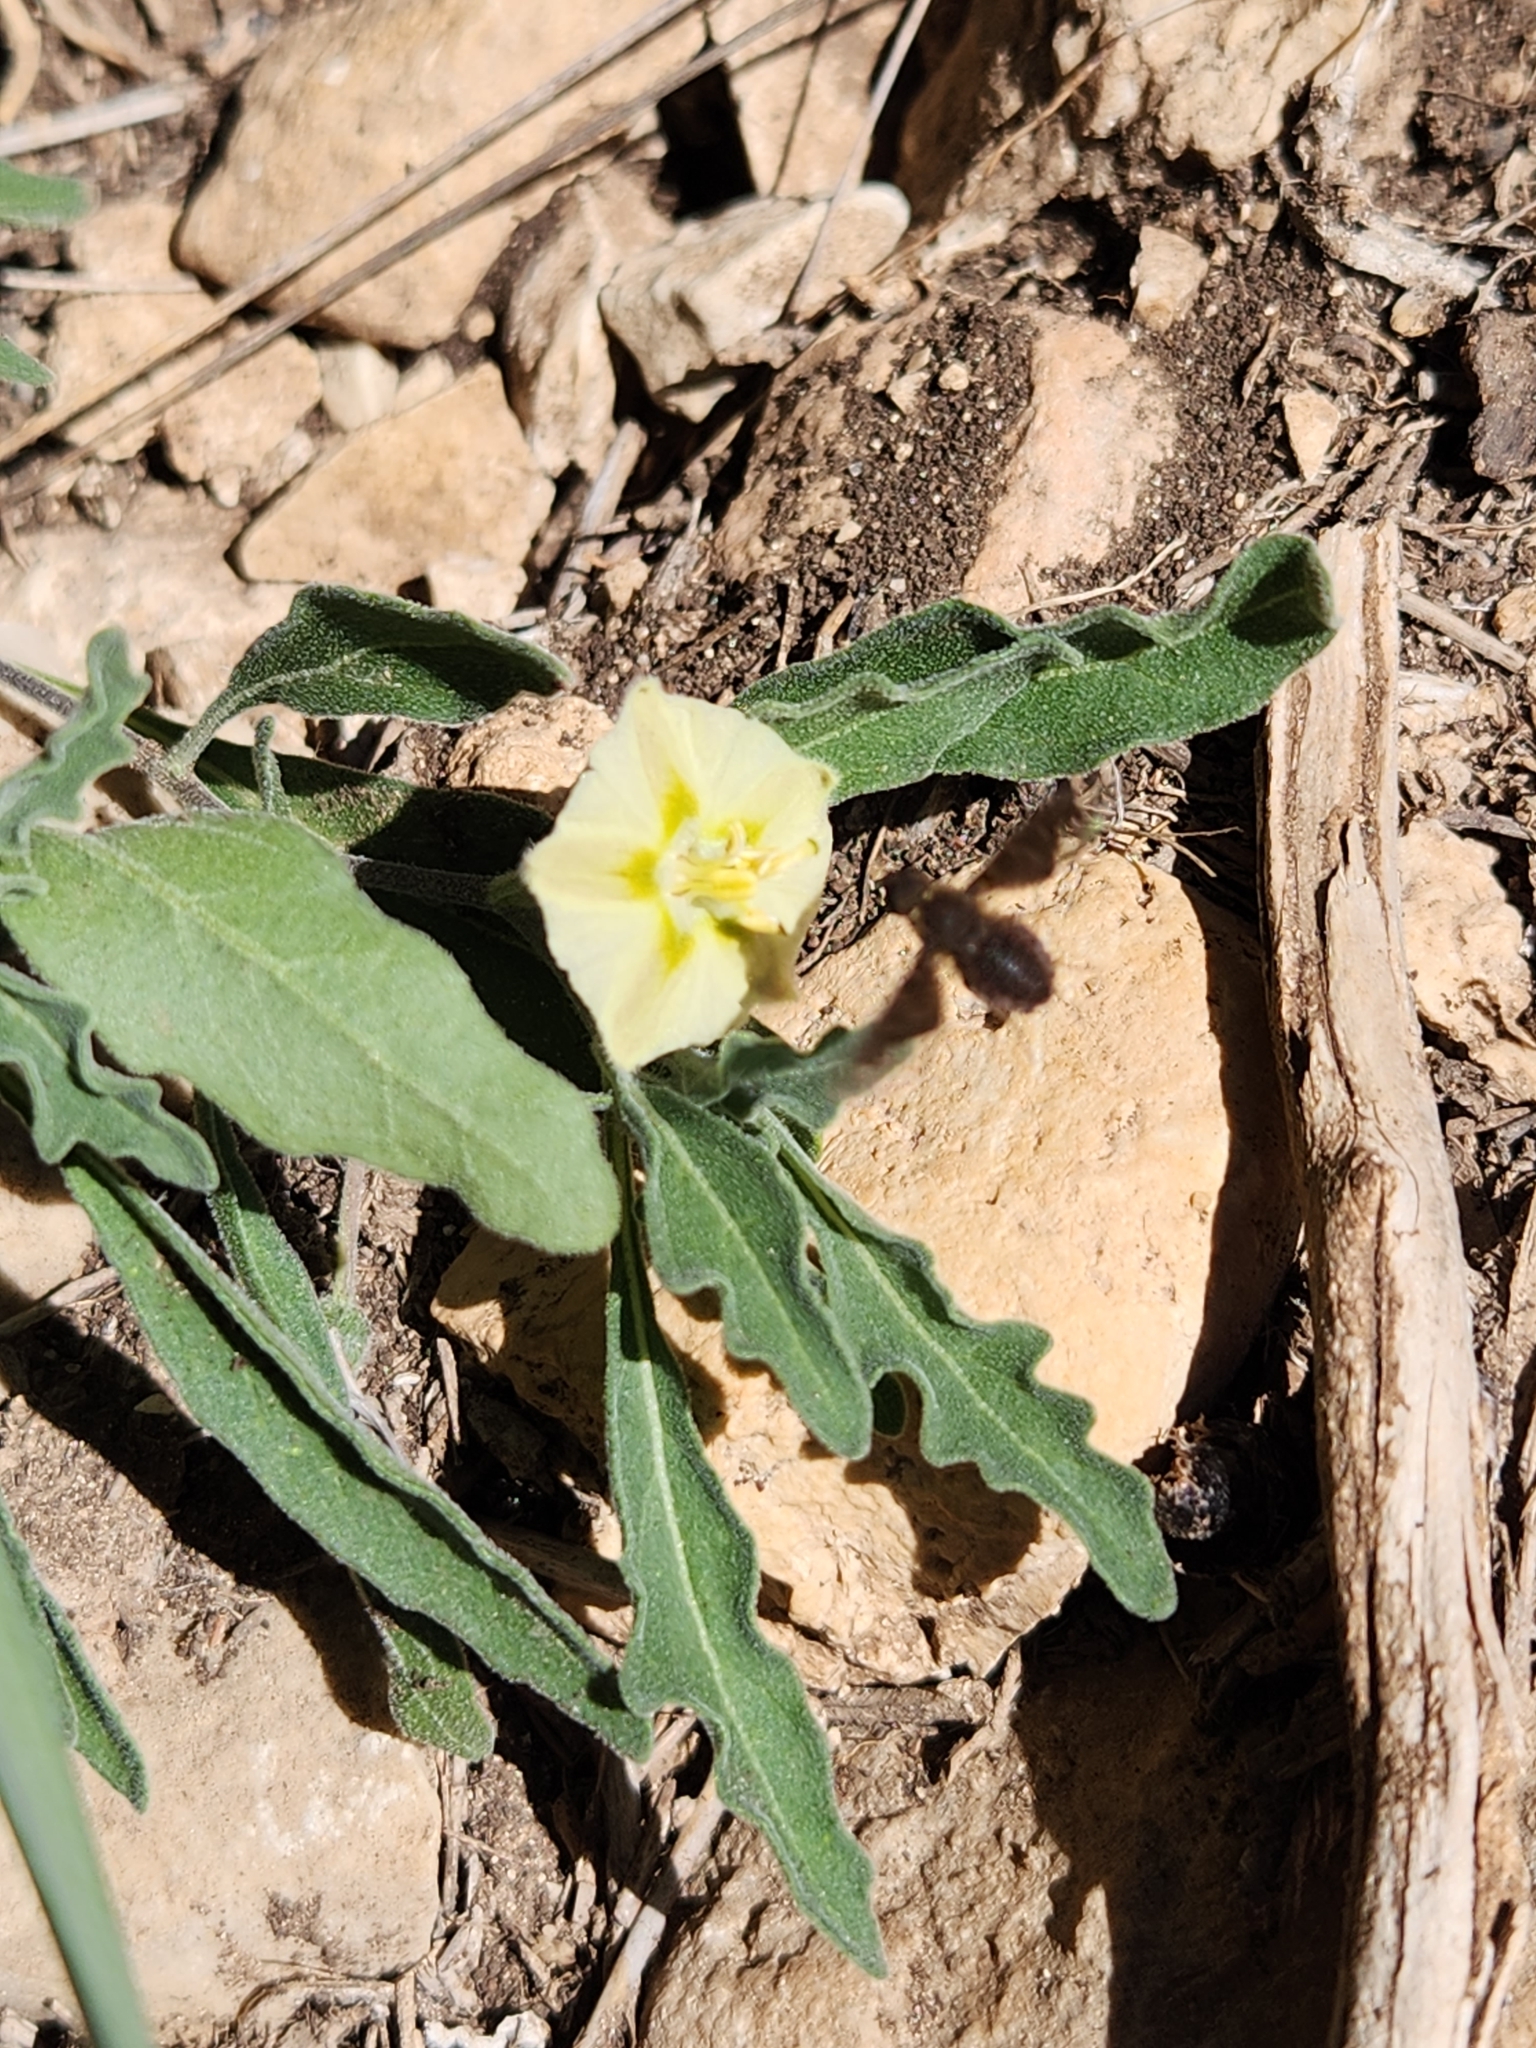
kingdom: Plantae
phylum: Tracheophyta
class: Magnoliopsida
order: Solanales
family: Solanaceae
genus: Chamaesaracha
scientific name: Chamaesaracha edwardsiana
